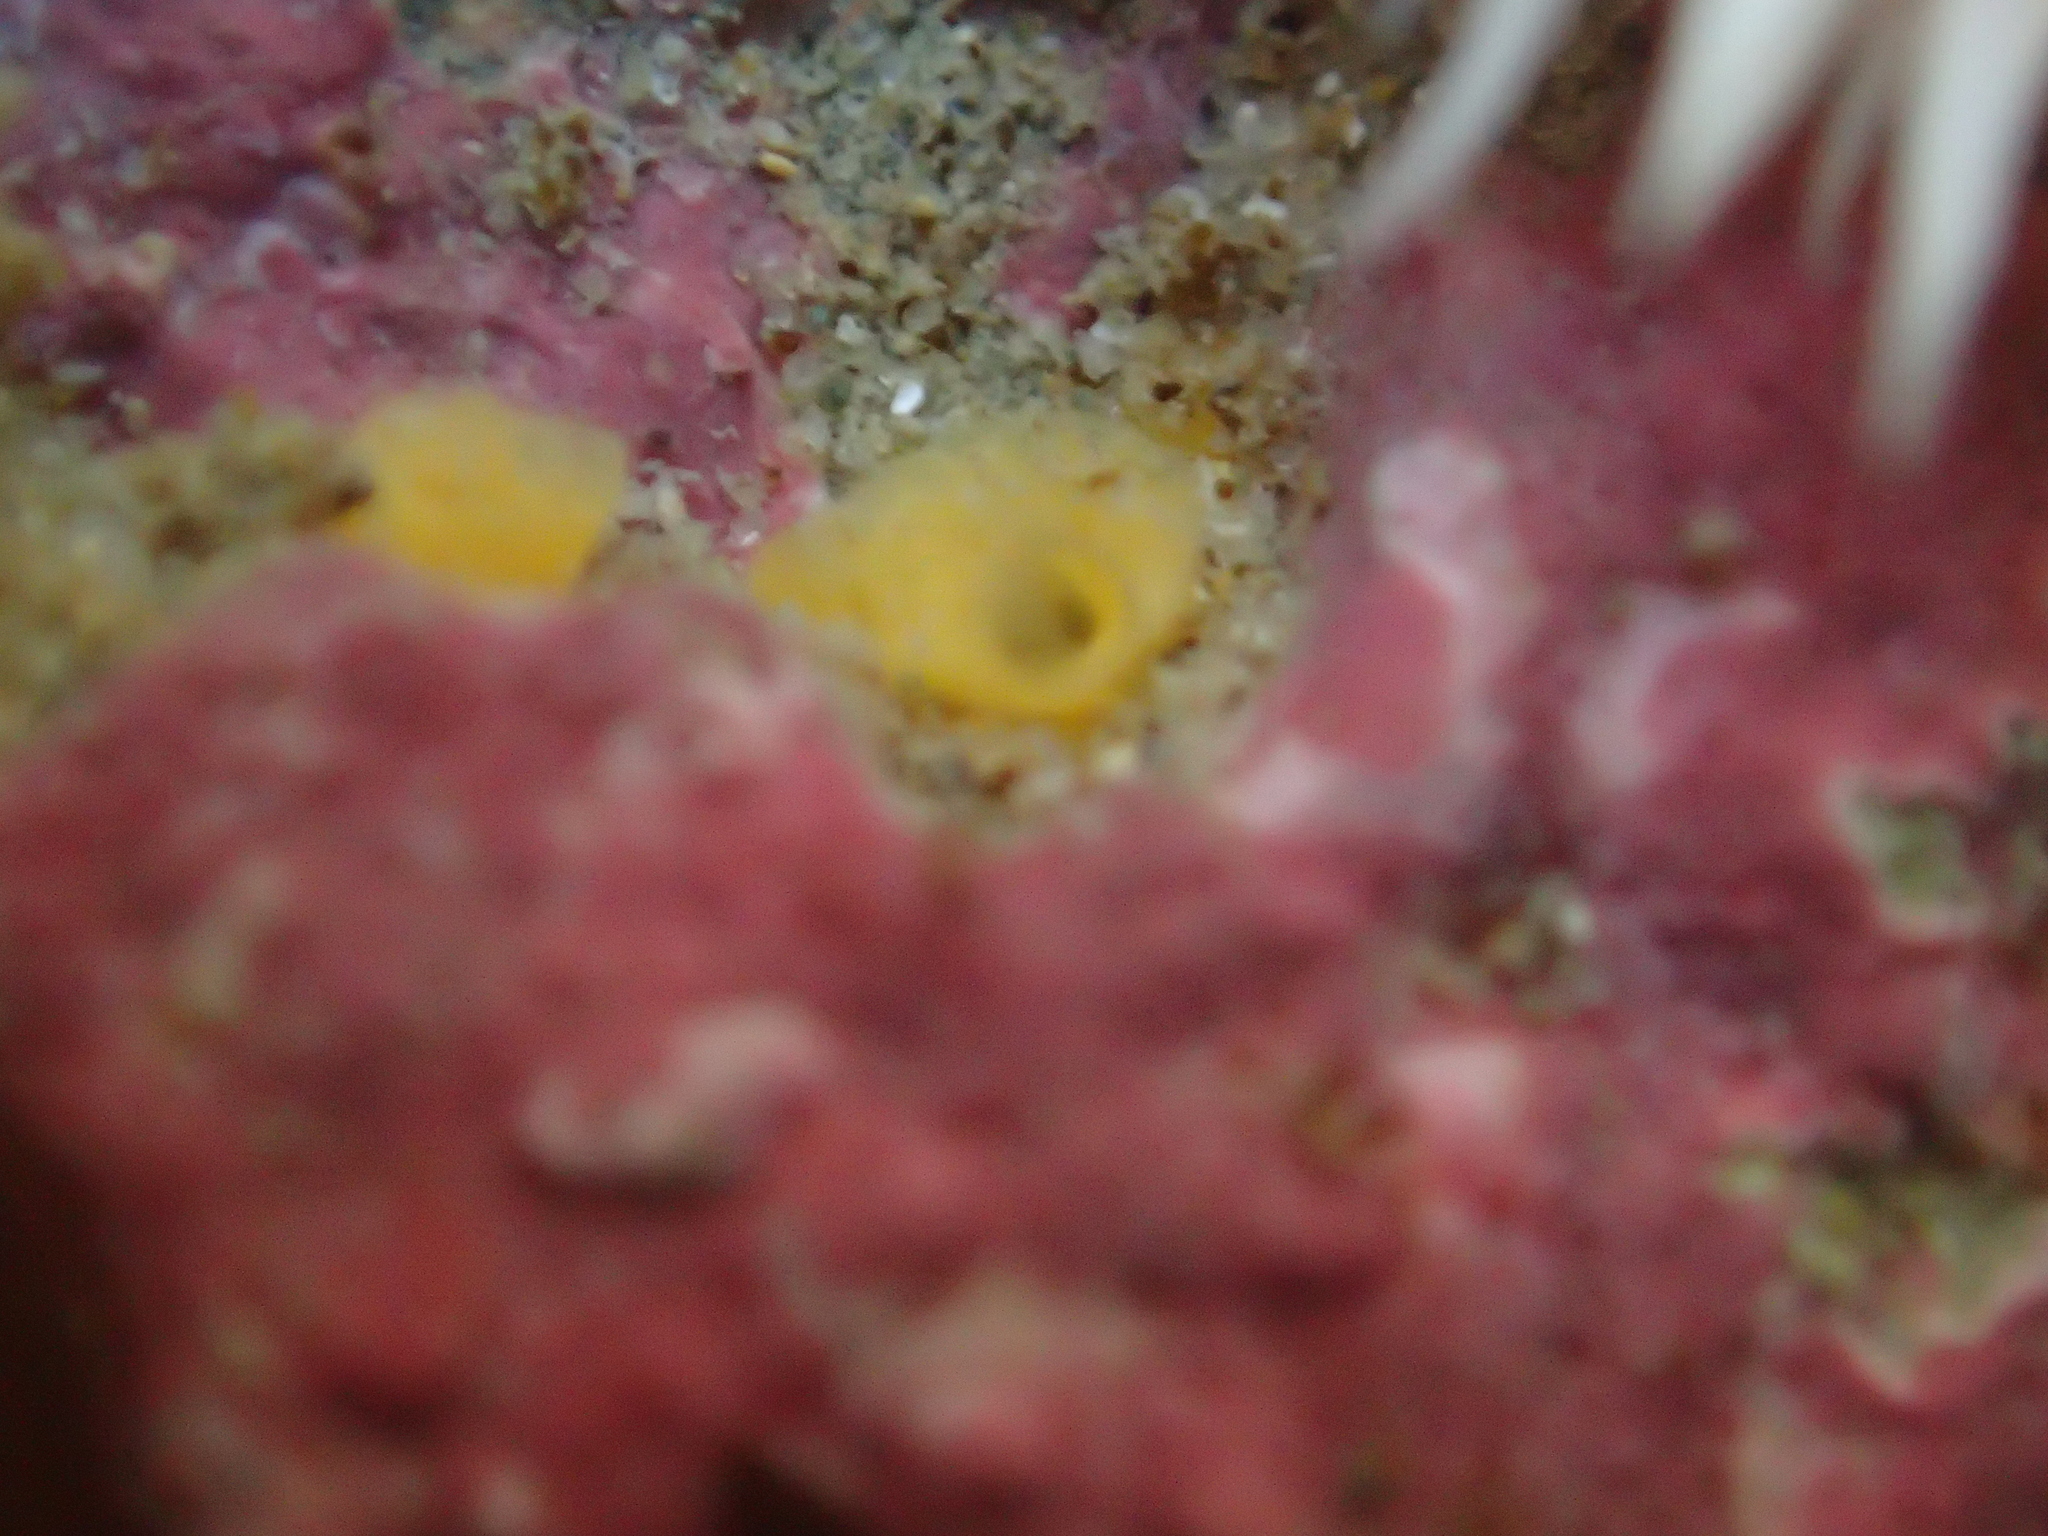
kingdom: Animalia
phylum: Porifera
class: Demospongiae
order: Clionaida
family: Clionaidae
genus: Cliona
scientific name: Cliona celata
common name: Boring sponge
